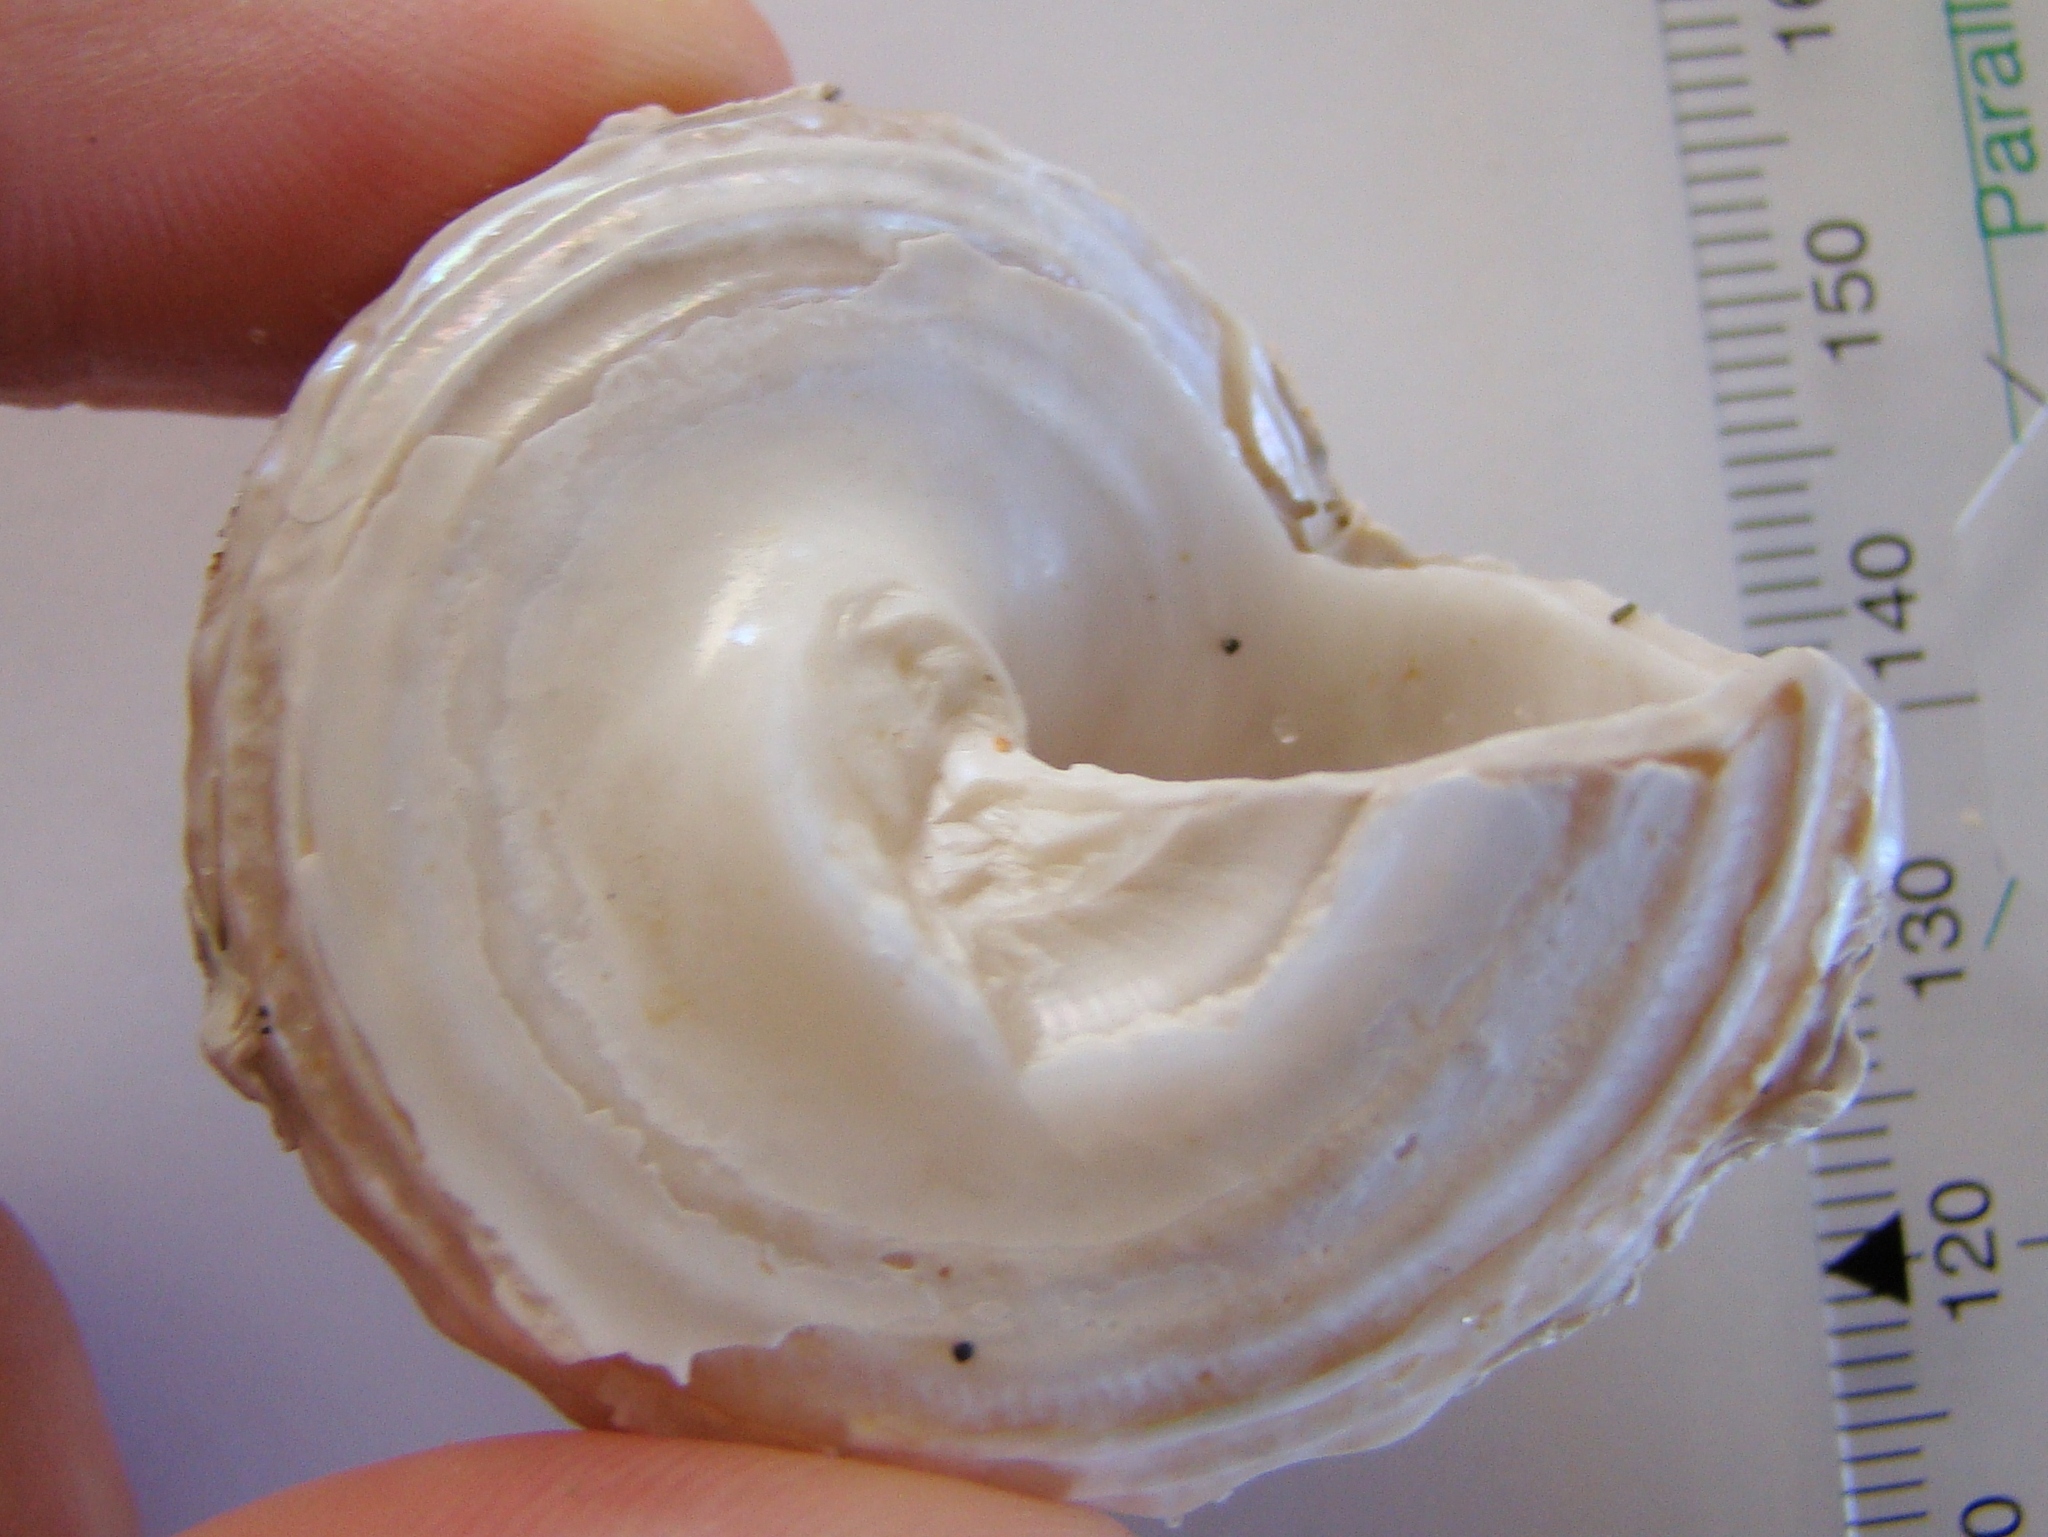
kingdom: Animalia
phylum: Mollusca
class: Gastropoda
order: Trochida
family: Turbinidae
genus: Cookia
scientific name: Cookia sulcata
